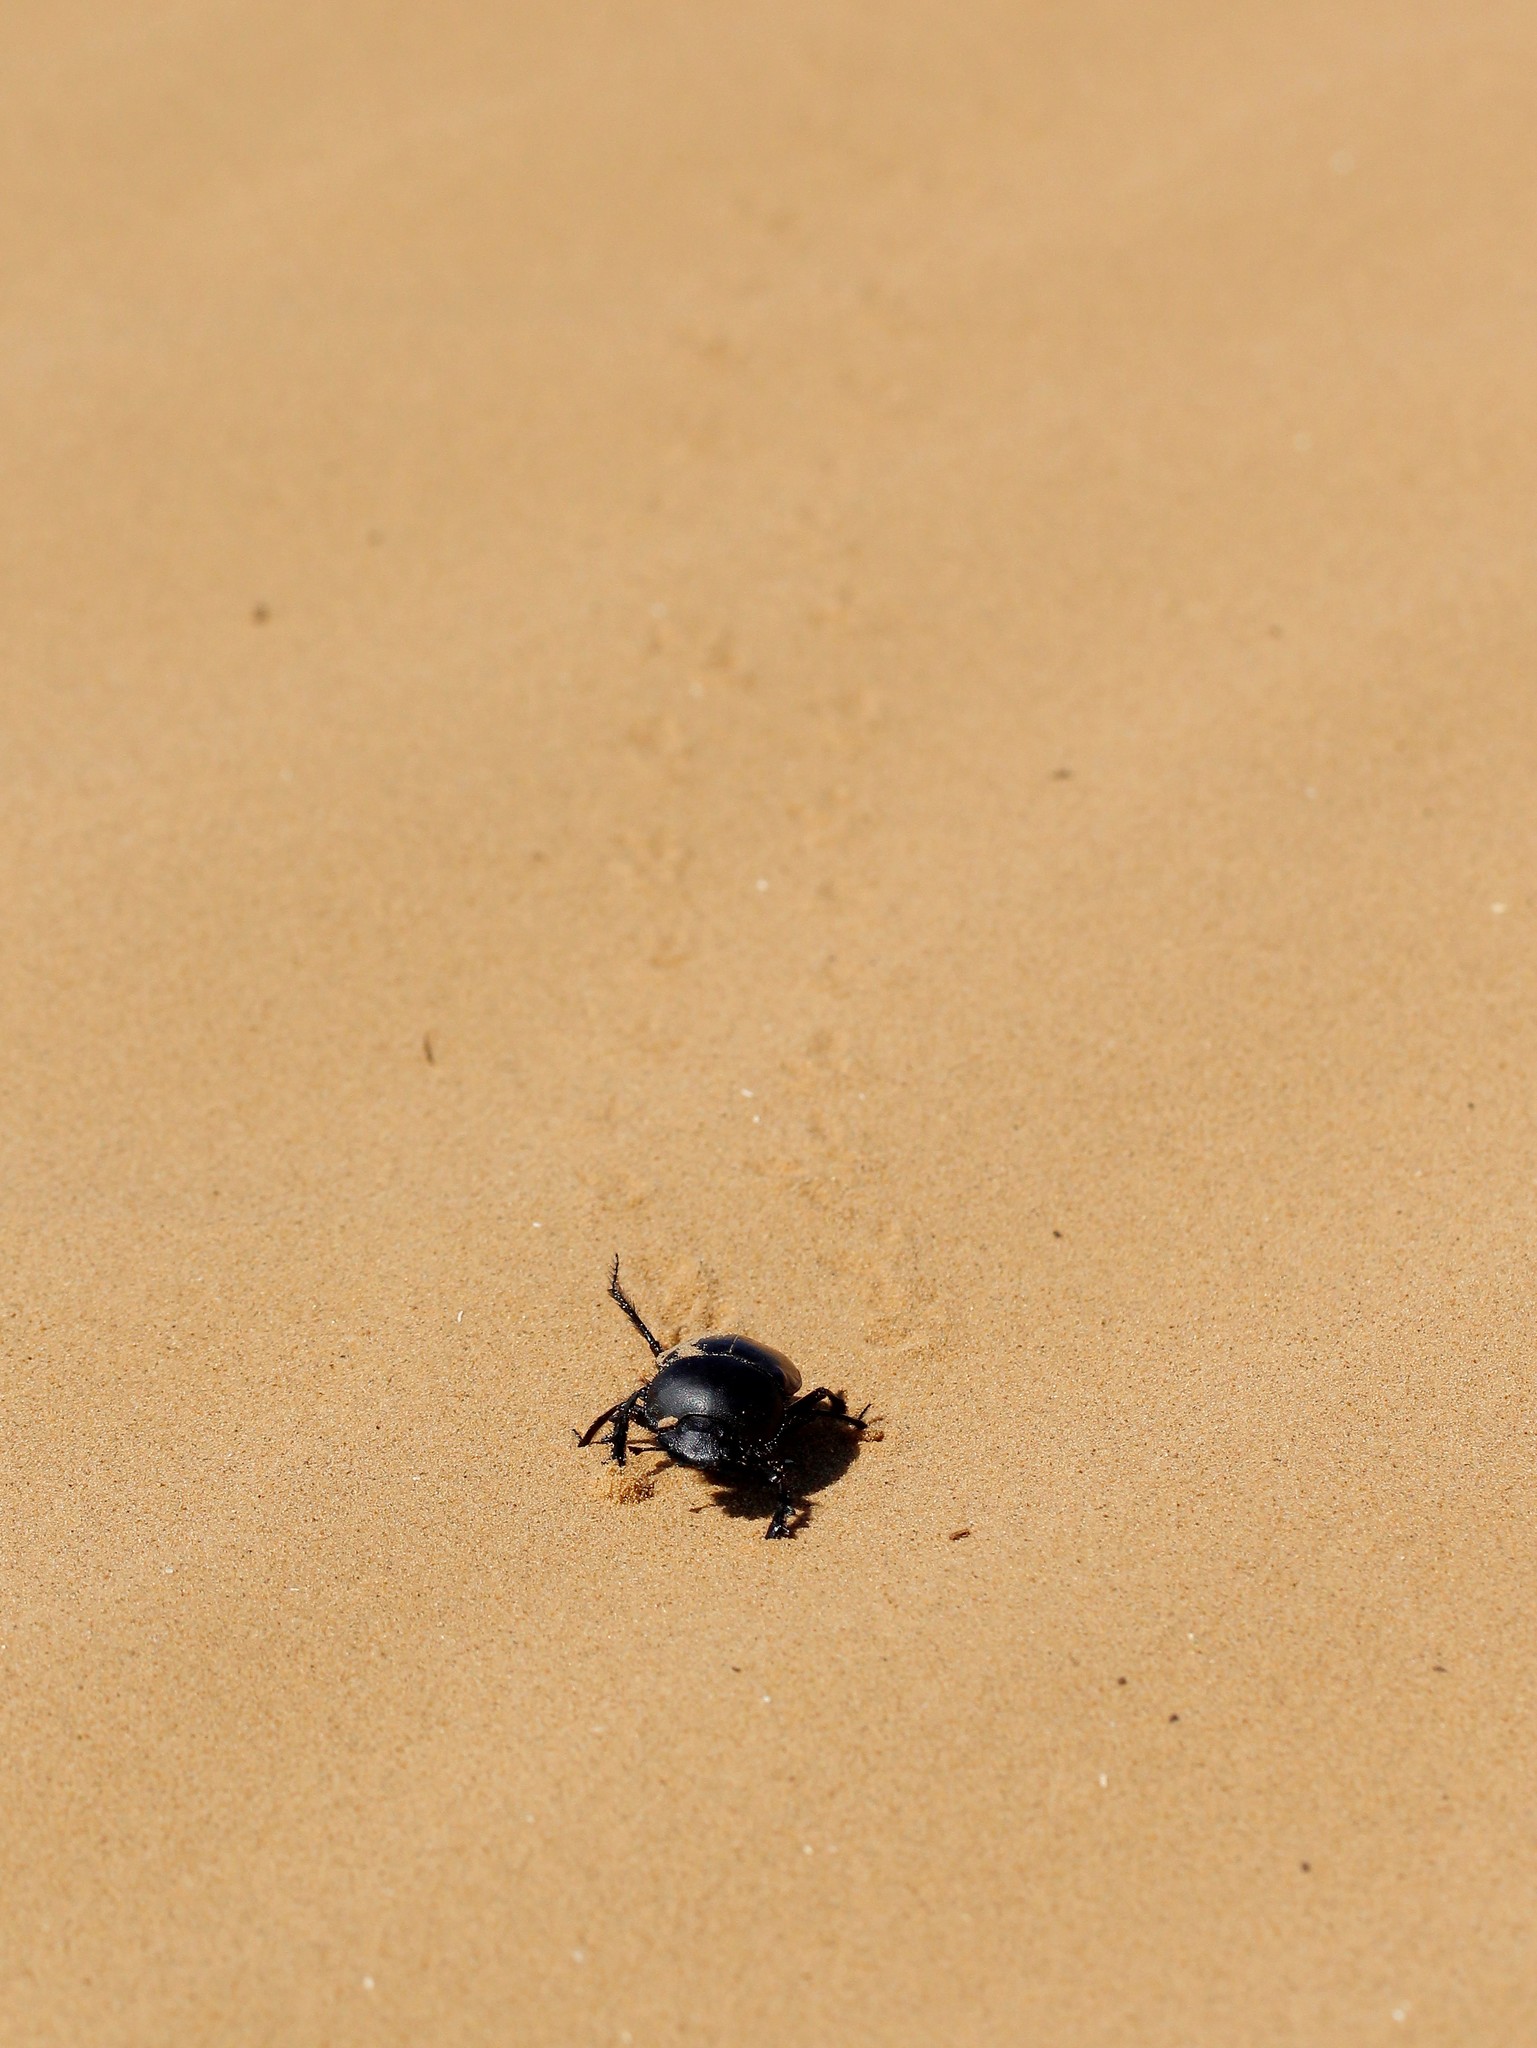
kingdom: Animalia
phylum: Arthropoda
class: Insecta
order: Coleoptera
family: Scarabaeidae
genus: Scarabaeus
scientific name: Scarabaeus typhon
